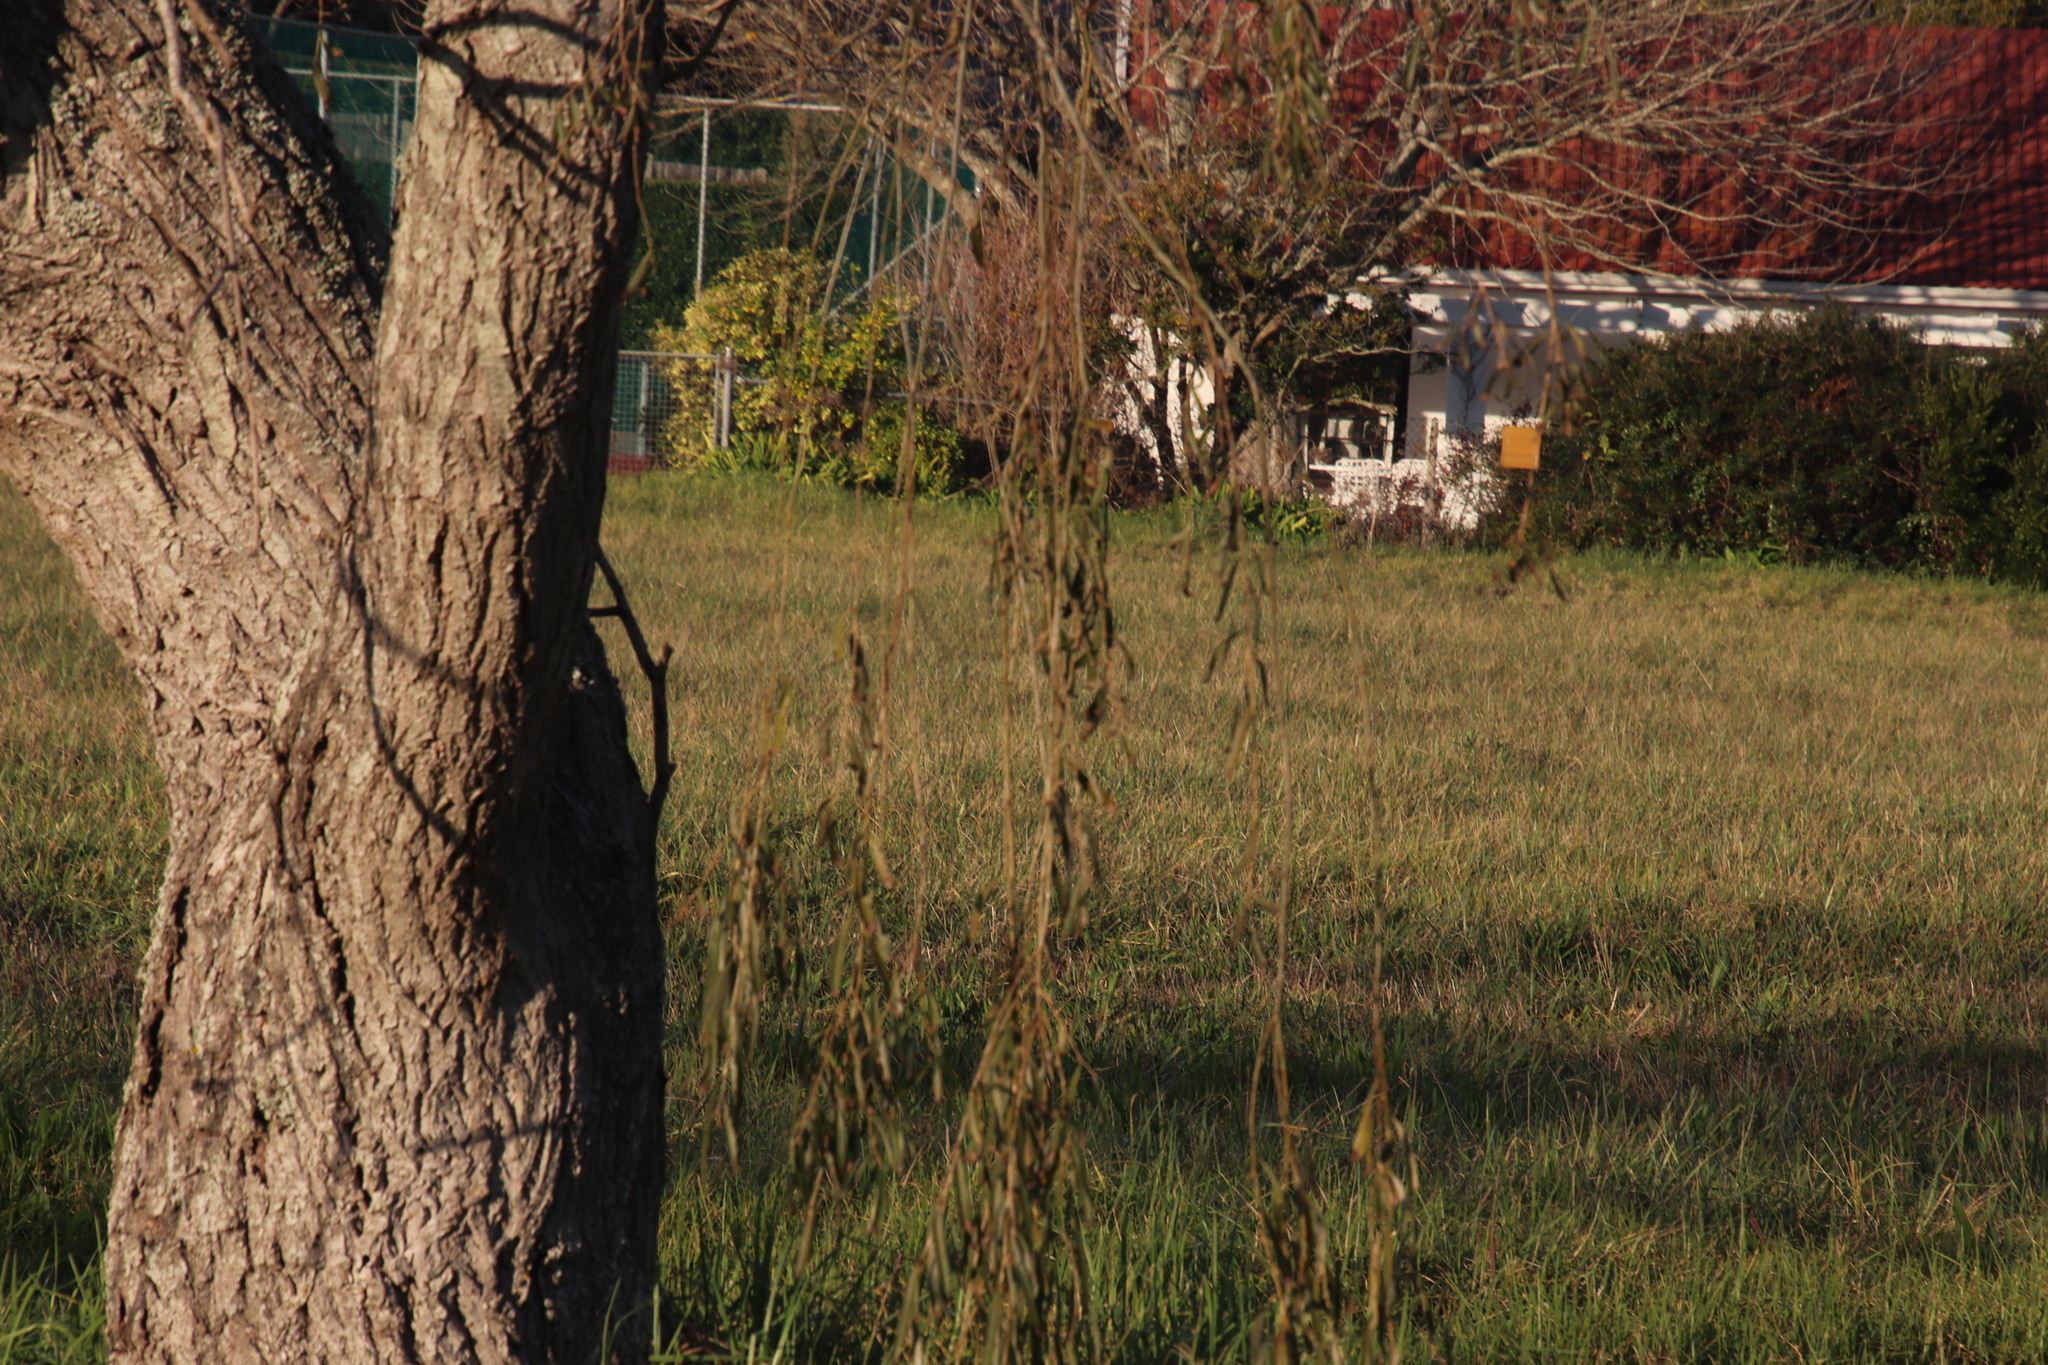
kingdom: Plantae
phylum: Tracheophyta
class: Magnoliopsida
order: Malpighiales
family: Salicaceae
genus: Salix
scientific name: Salix babylonica
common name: Weeping willow
